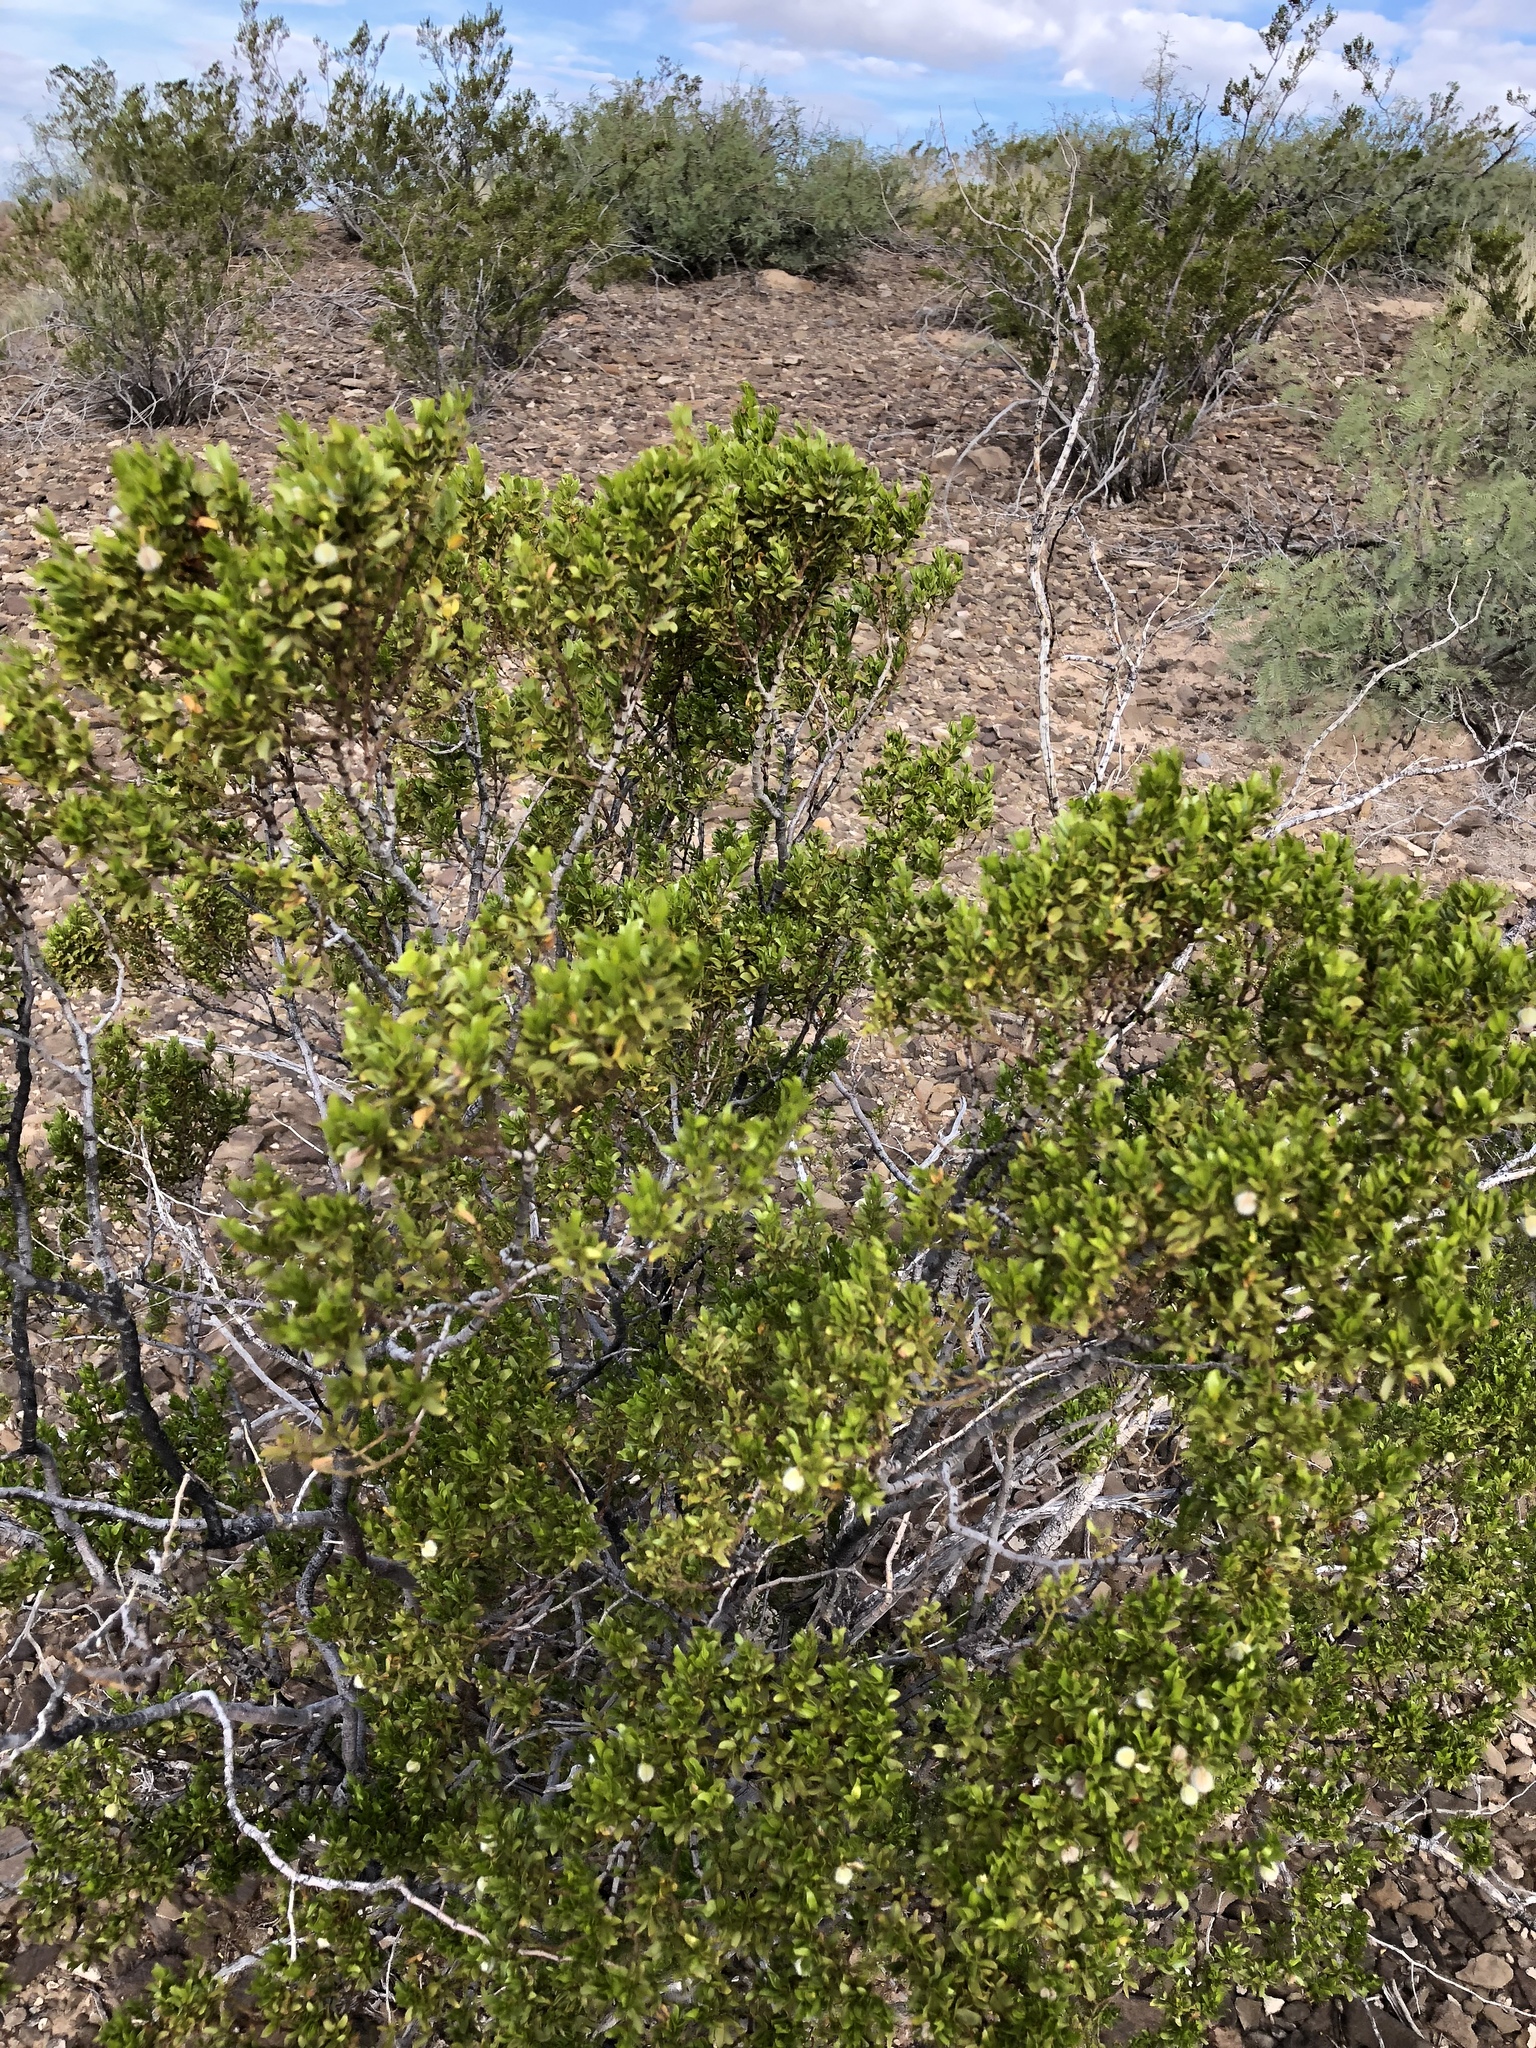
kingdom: Plantae
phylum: Tracheophyta
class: Magnoliopsida
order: Zygophyllales
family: Zygophyllaceae
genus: Larrea
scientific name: Larrea tridentata
